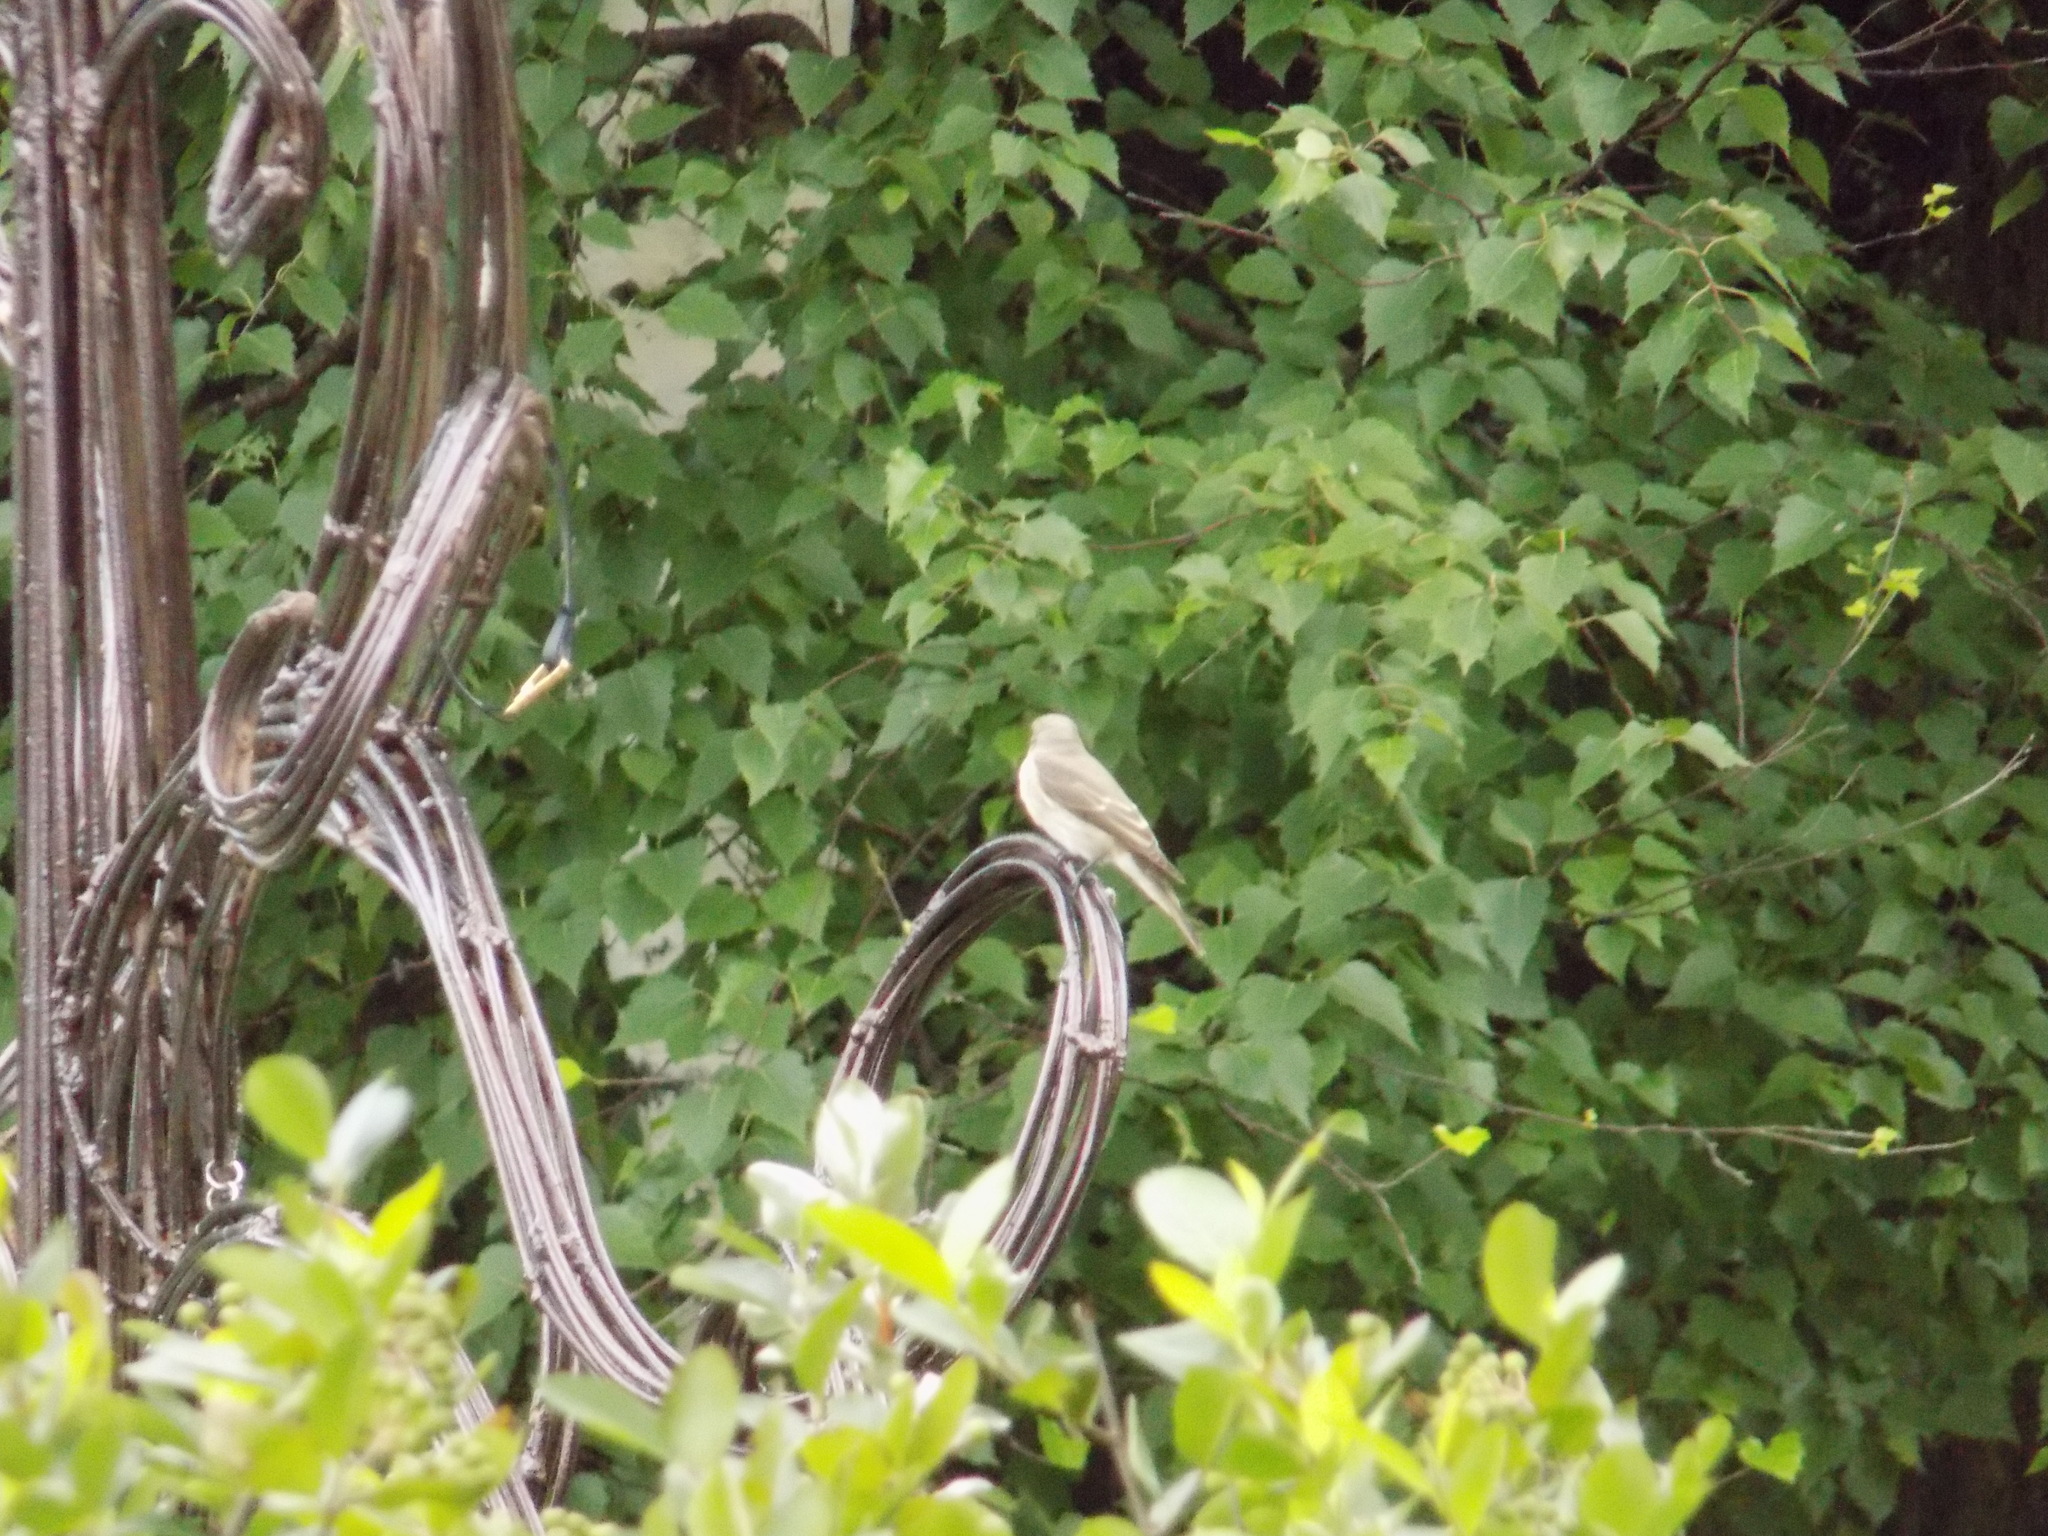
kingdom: Animalia
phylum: Chordata
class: Aves
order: Passeriformes
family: Muscicapidae
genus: Muscicapa
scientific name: Muscicapa striata
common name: Spotted flycatcher
